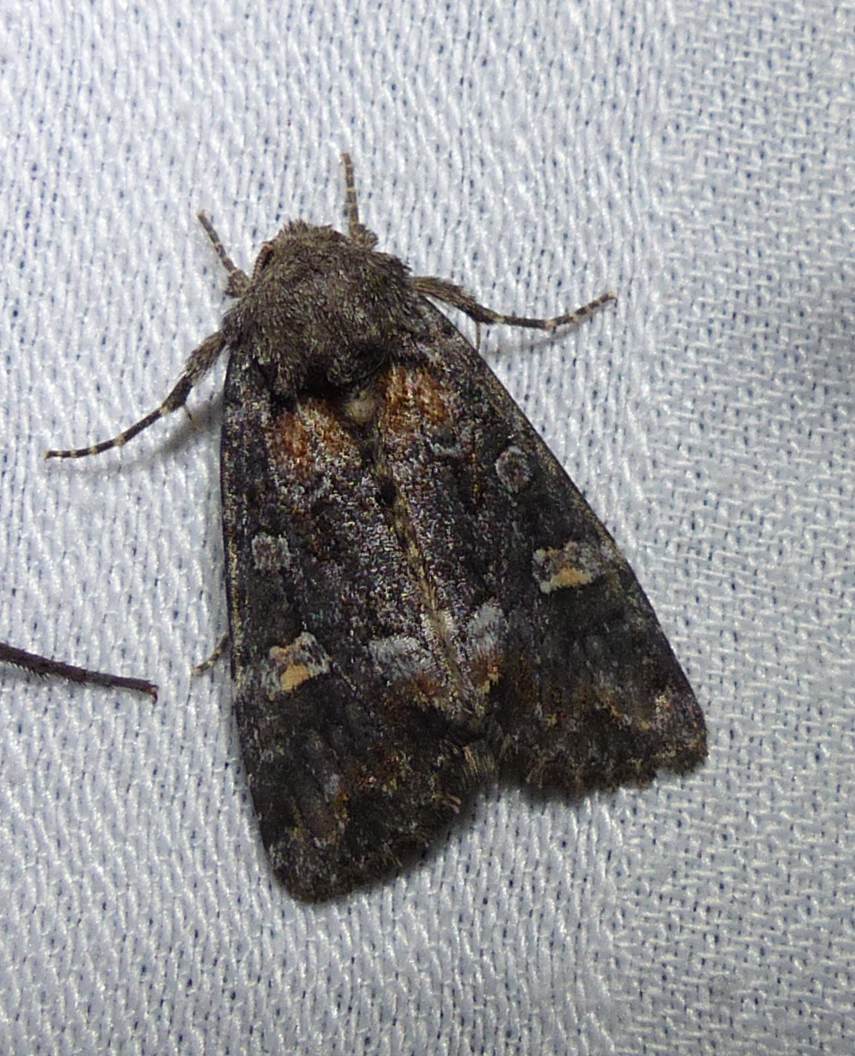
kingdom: Animalia
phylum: Arthropoda
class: Insecta
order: Lepidoptera
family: Noctuidae
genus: Spiramater
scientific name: Spiramater lutra
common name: Otter spiramater moth
